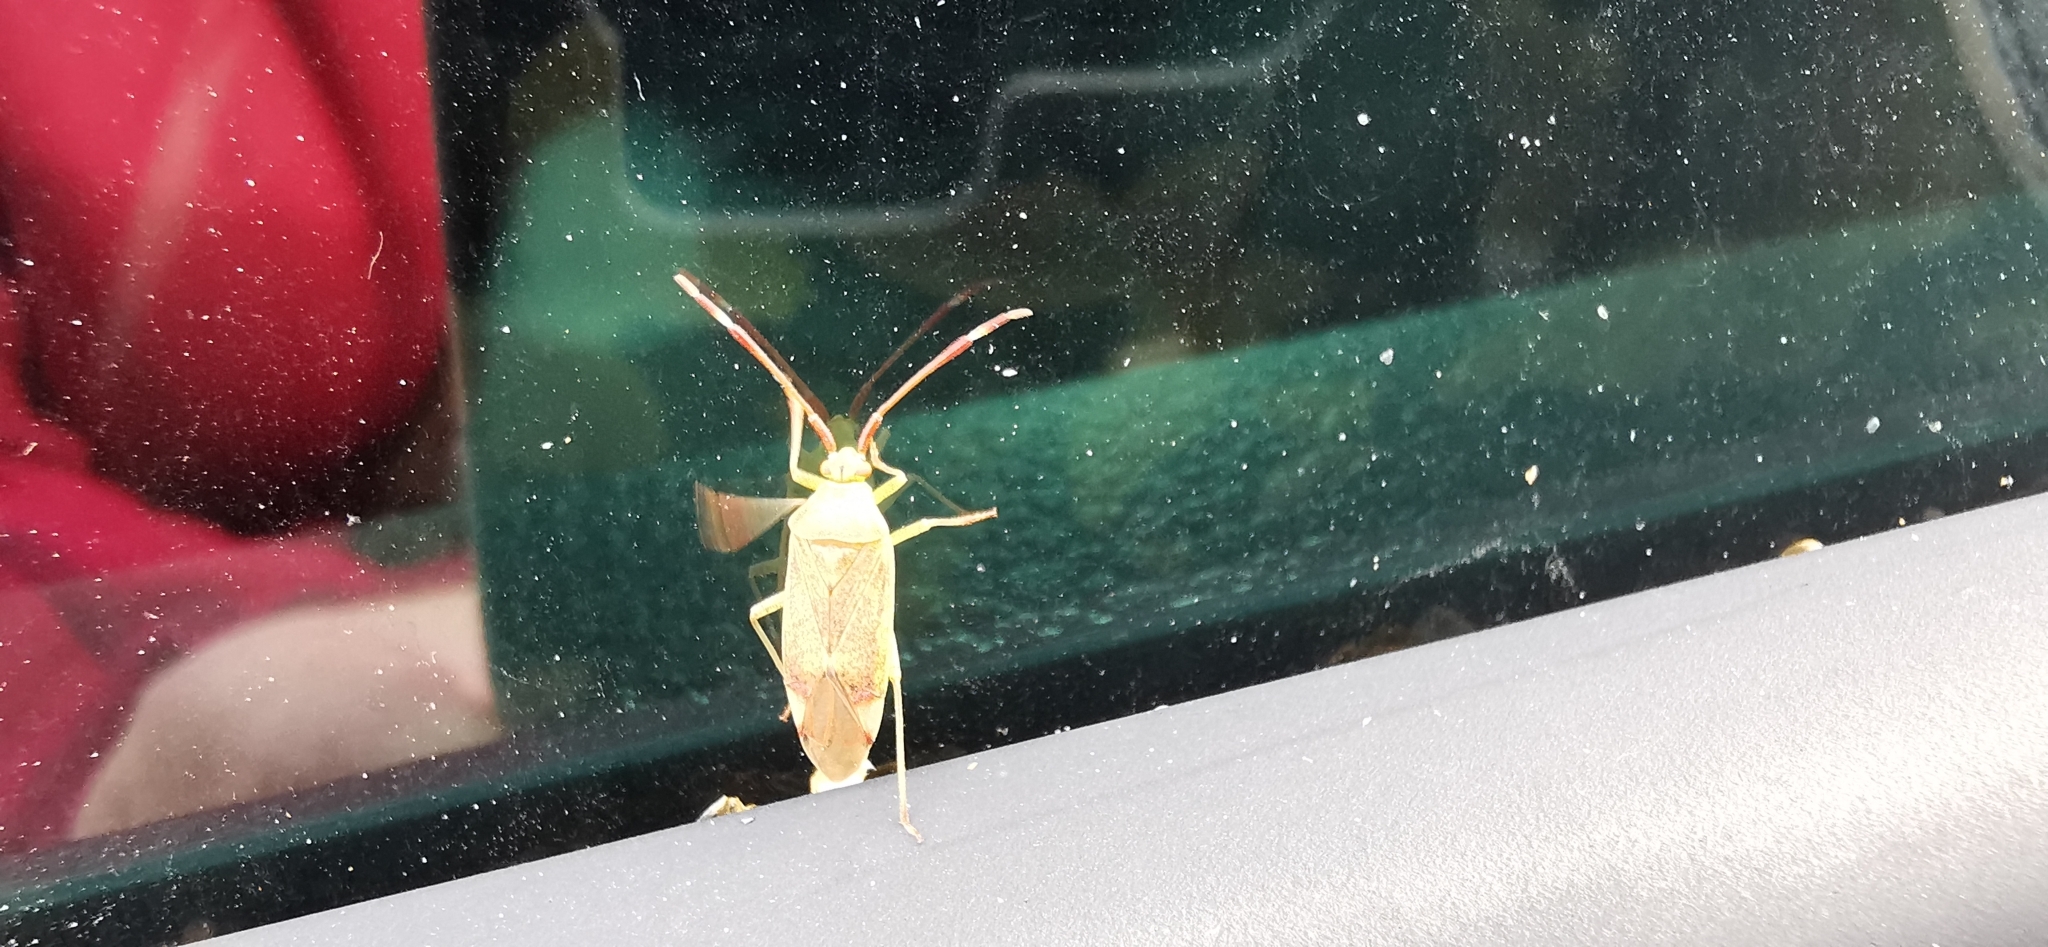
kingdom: Animalia
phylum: Arthropoda
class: Insecta
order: Hemiptera
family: Miridae
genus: Pantilius
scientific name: Pantilius tunicatus
